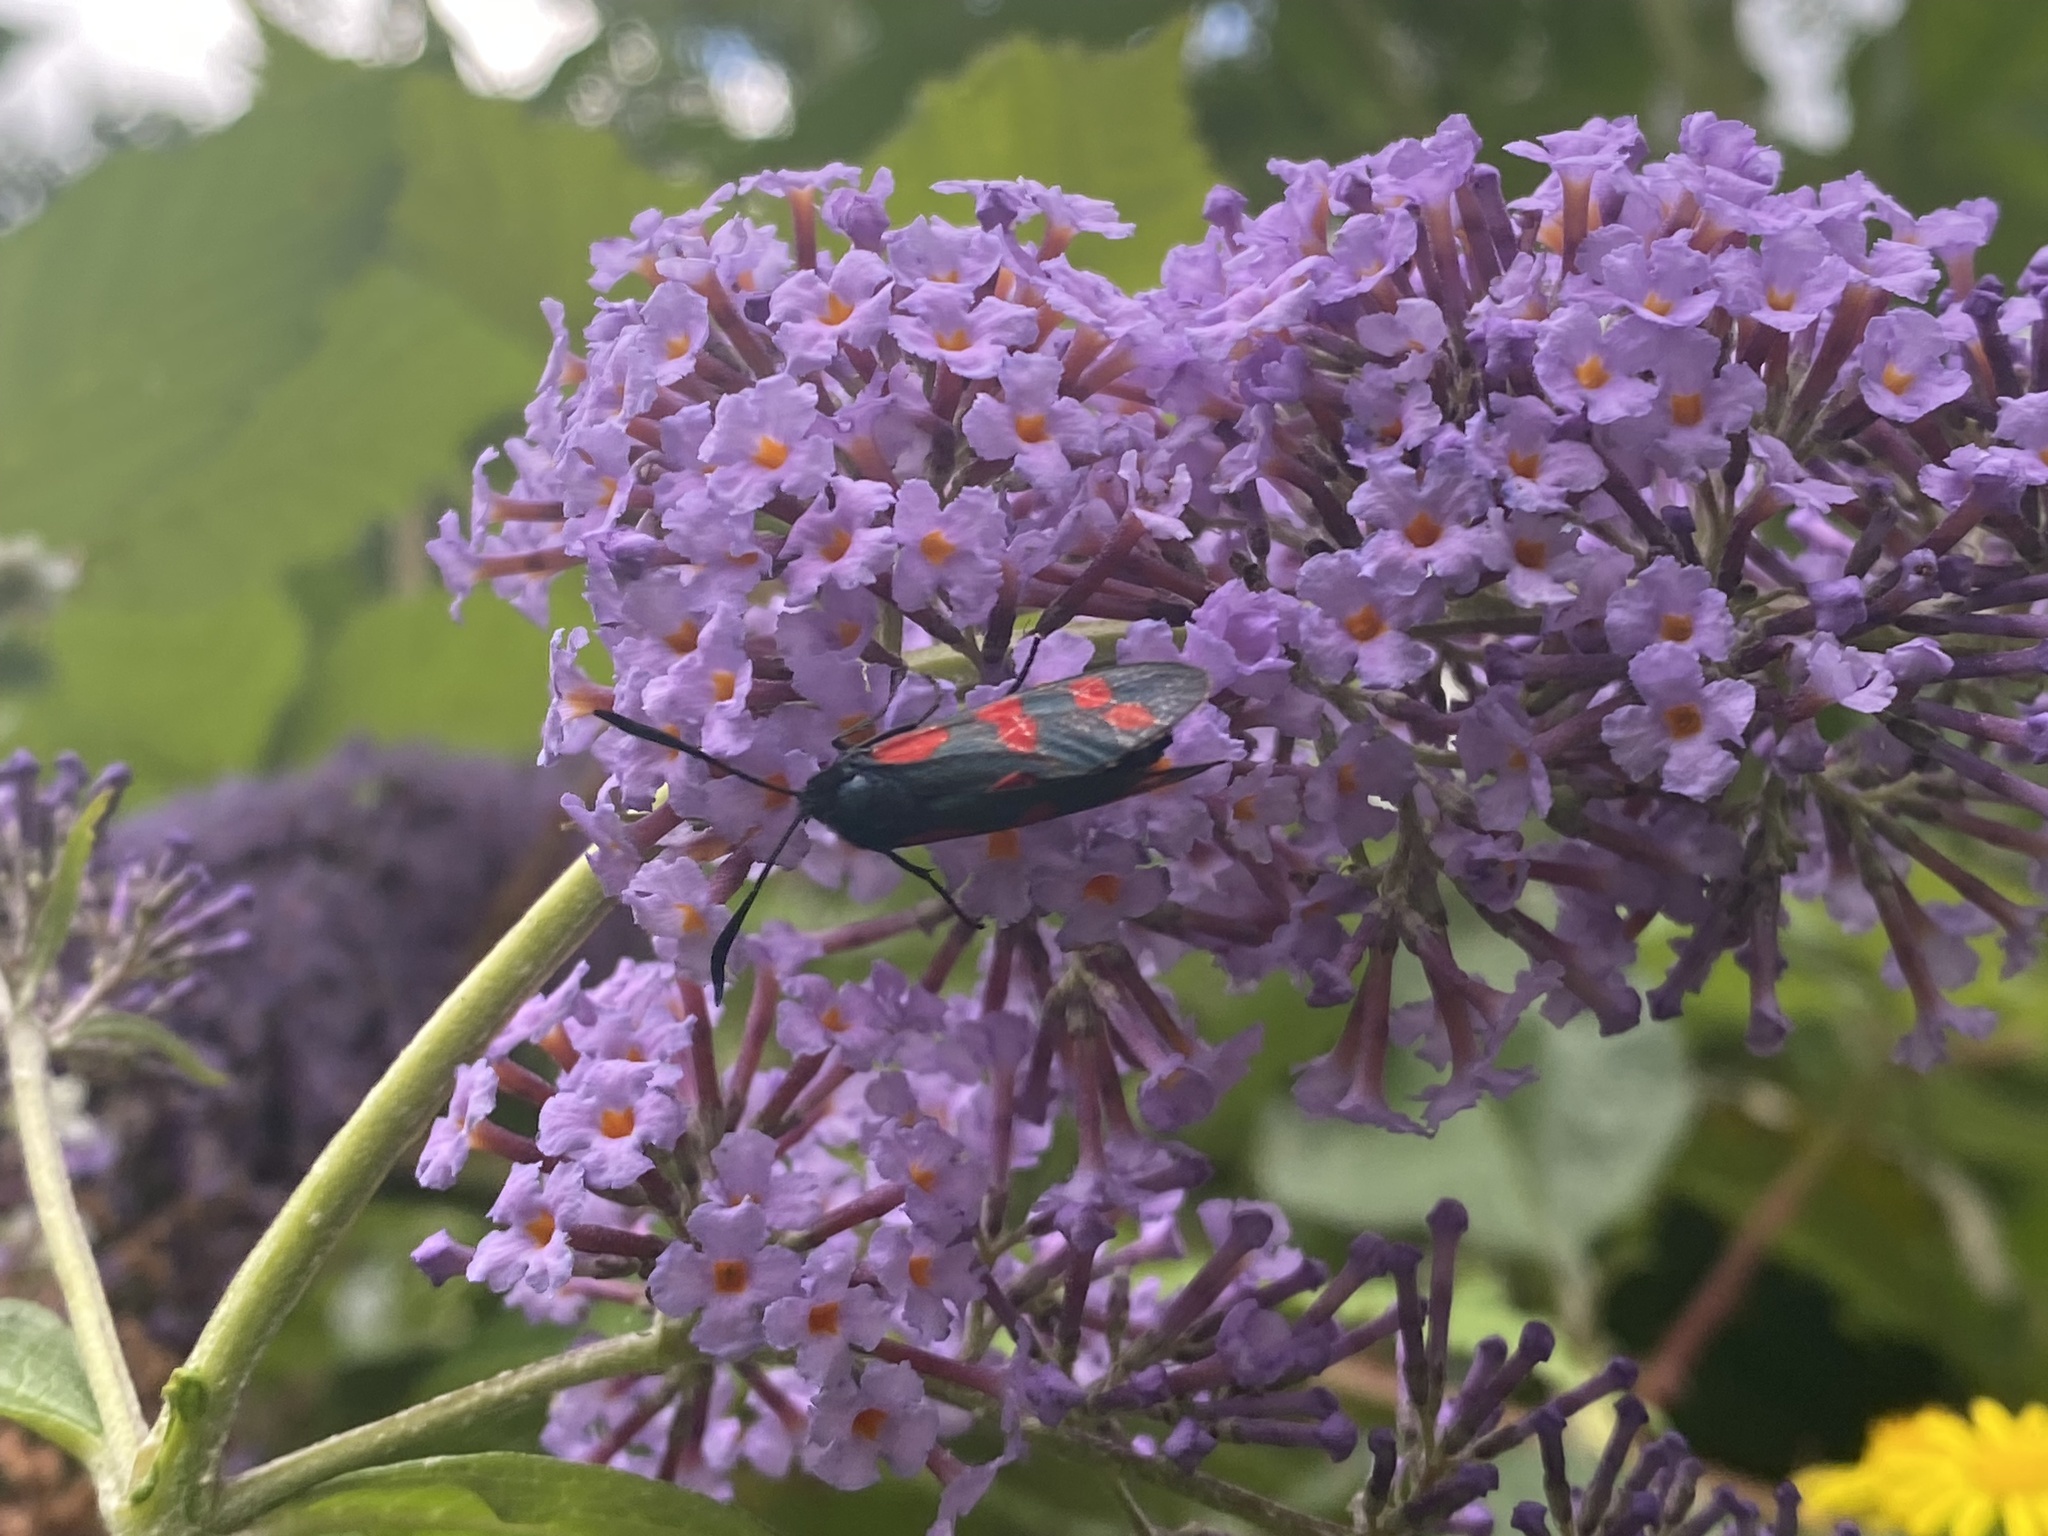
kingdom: Animalia
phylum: Arthropoda
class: Insecta
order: Lepidoptera
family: Zygaenidae
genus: Zygaena
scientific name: Zygaena filipendulae
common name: Six-spot burnet
